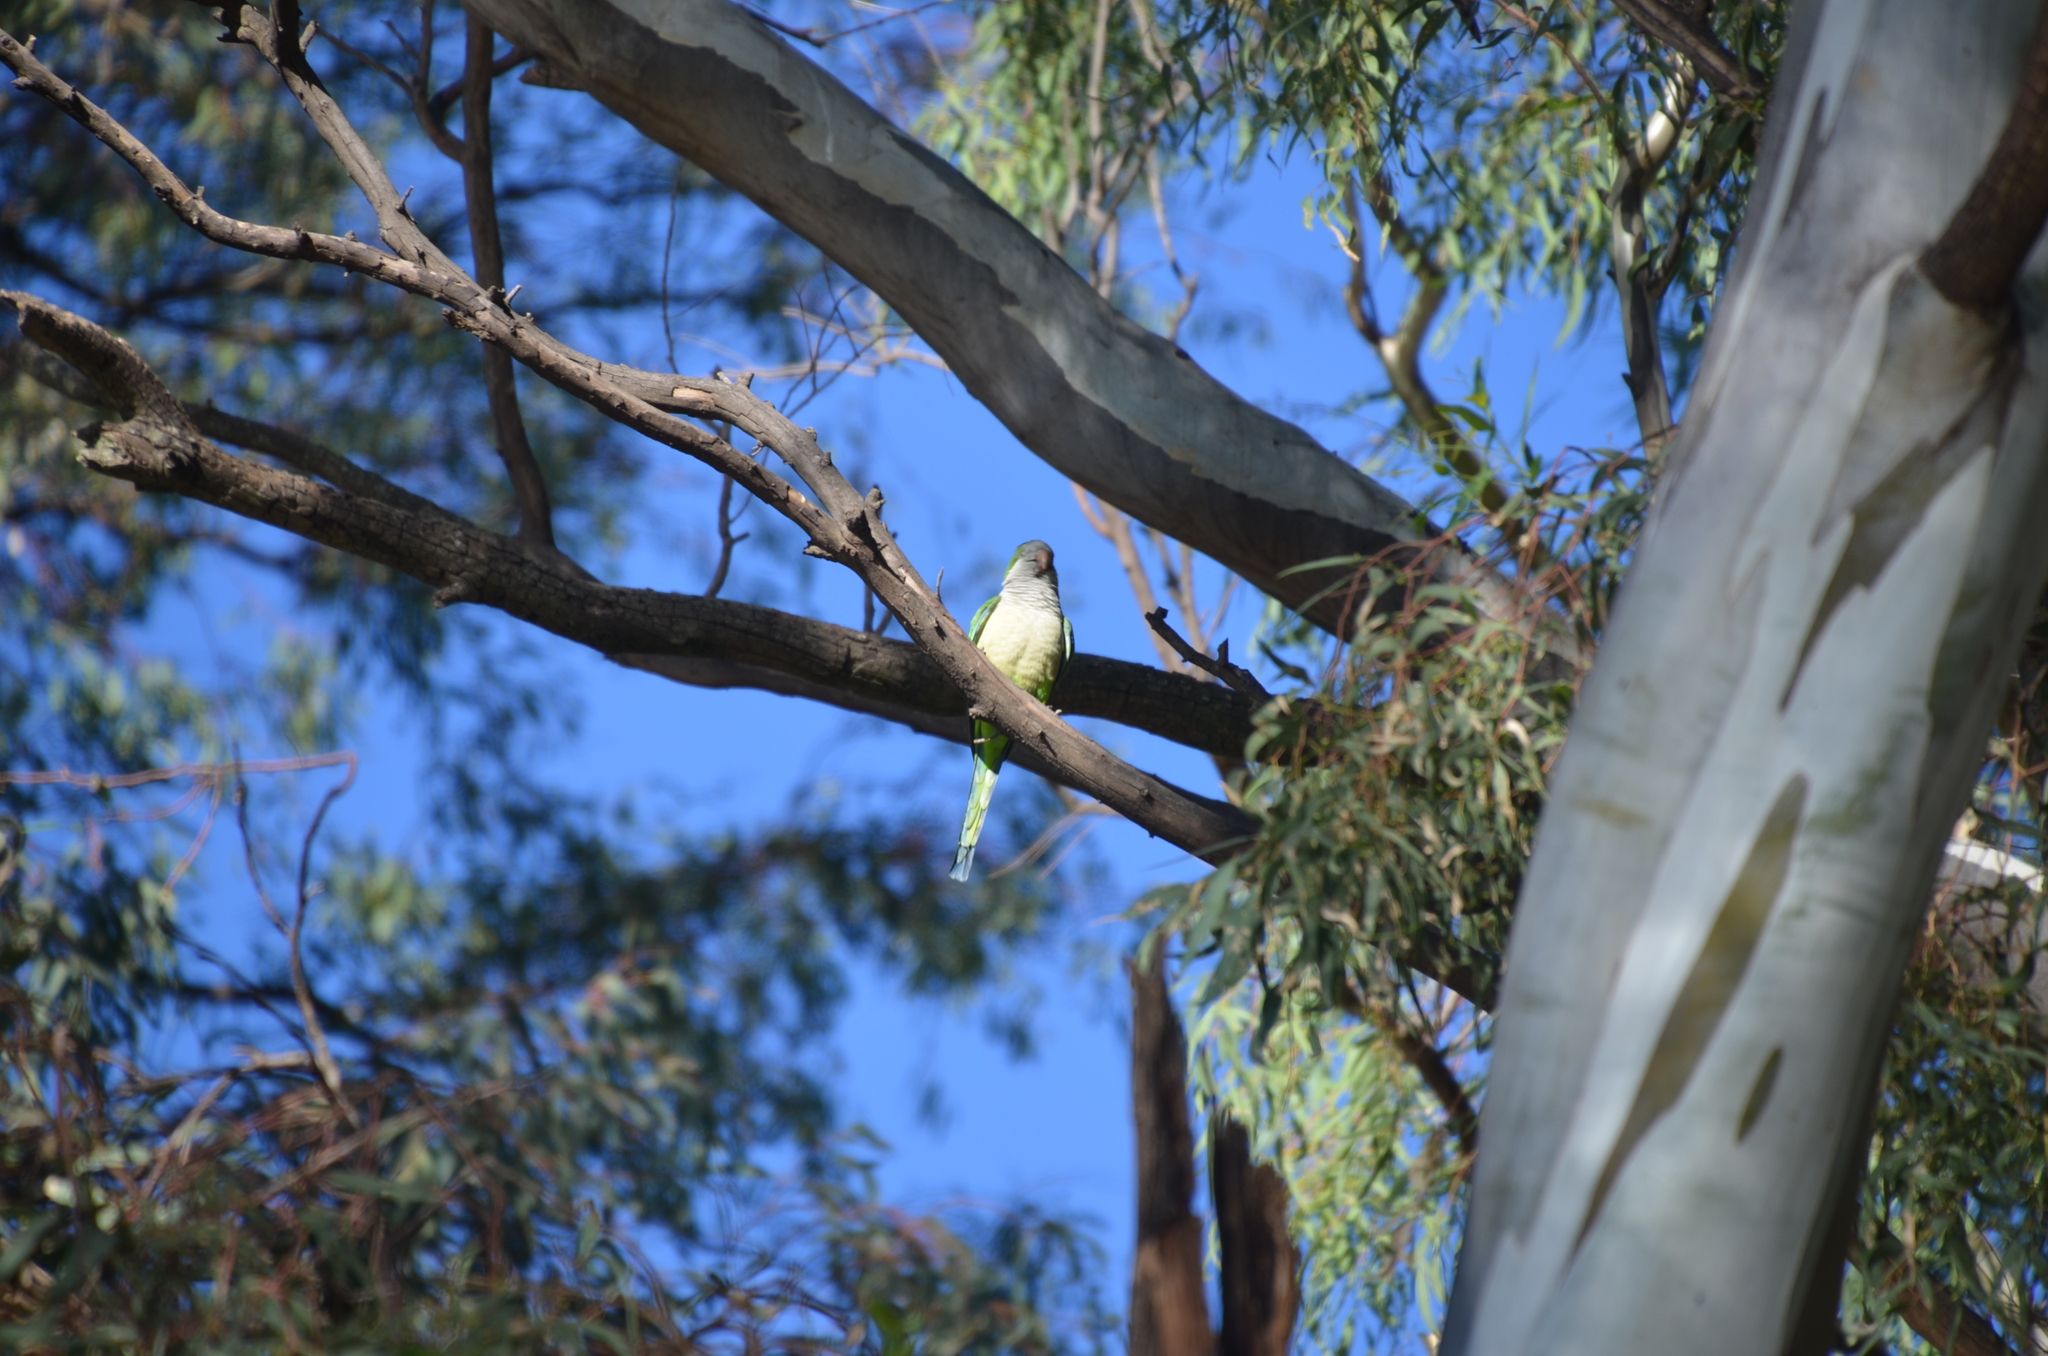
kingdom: Animalia
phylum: Chordata
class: Aves
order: Psittaciformes
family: Psittacidae
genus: Myiopsitta
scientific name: Myiopsitta monachus
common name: Monk parakeet
